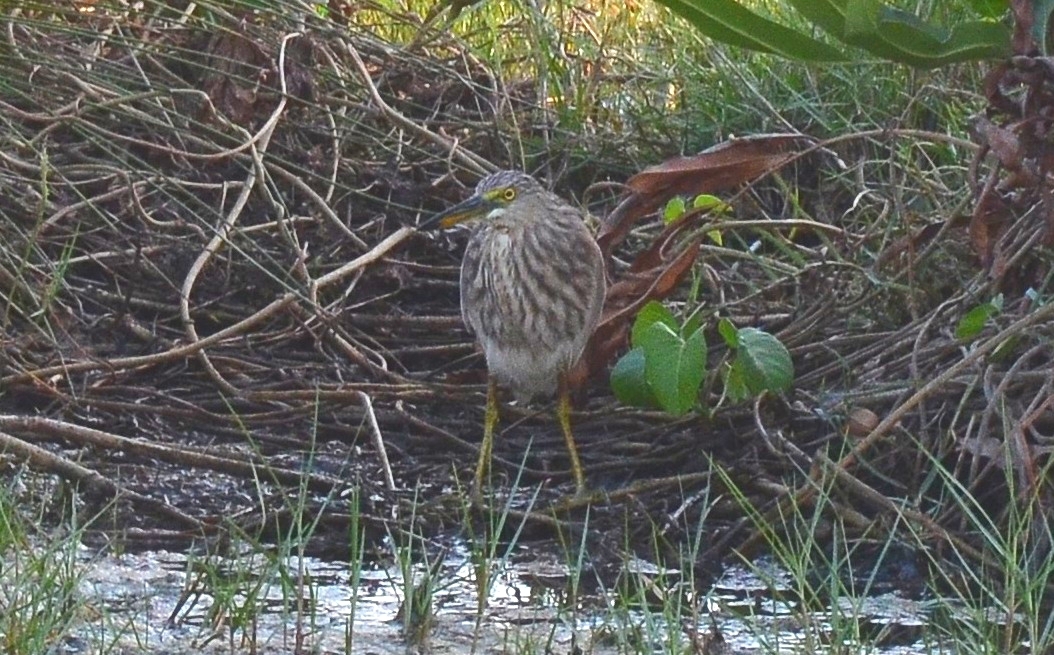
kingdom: Animalia
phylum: Chordata
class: Aves
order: Pelecaniformes
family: Ardeidae
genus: Ardeola
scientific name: Ardeola grayii
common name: Indian pond heron
